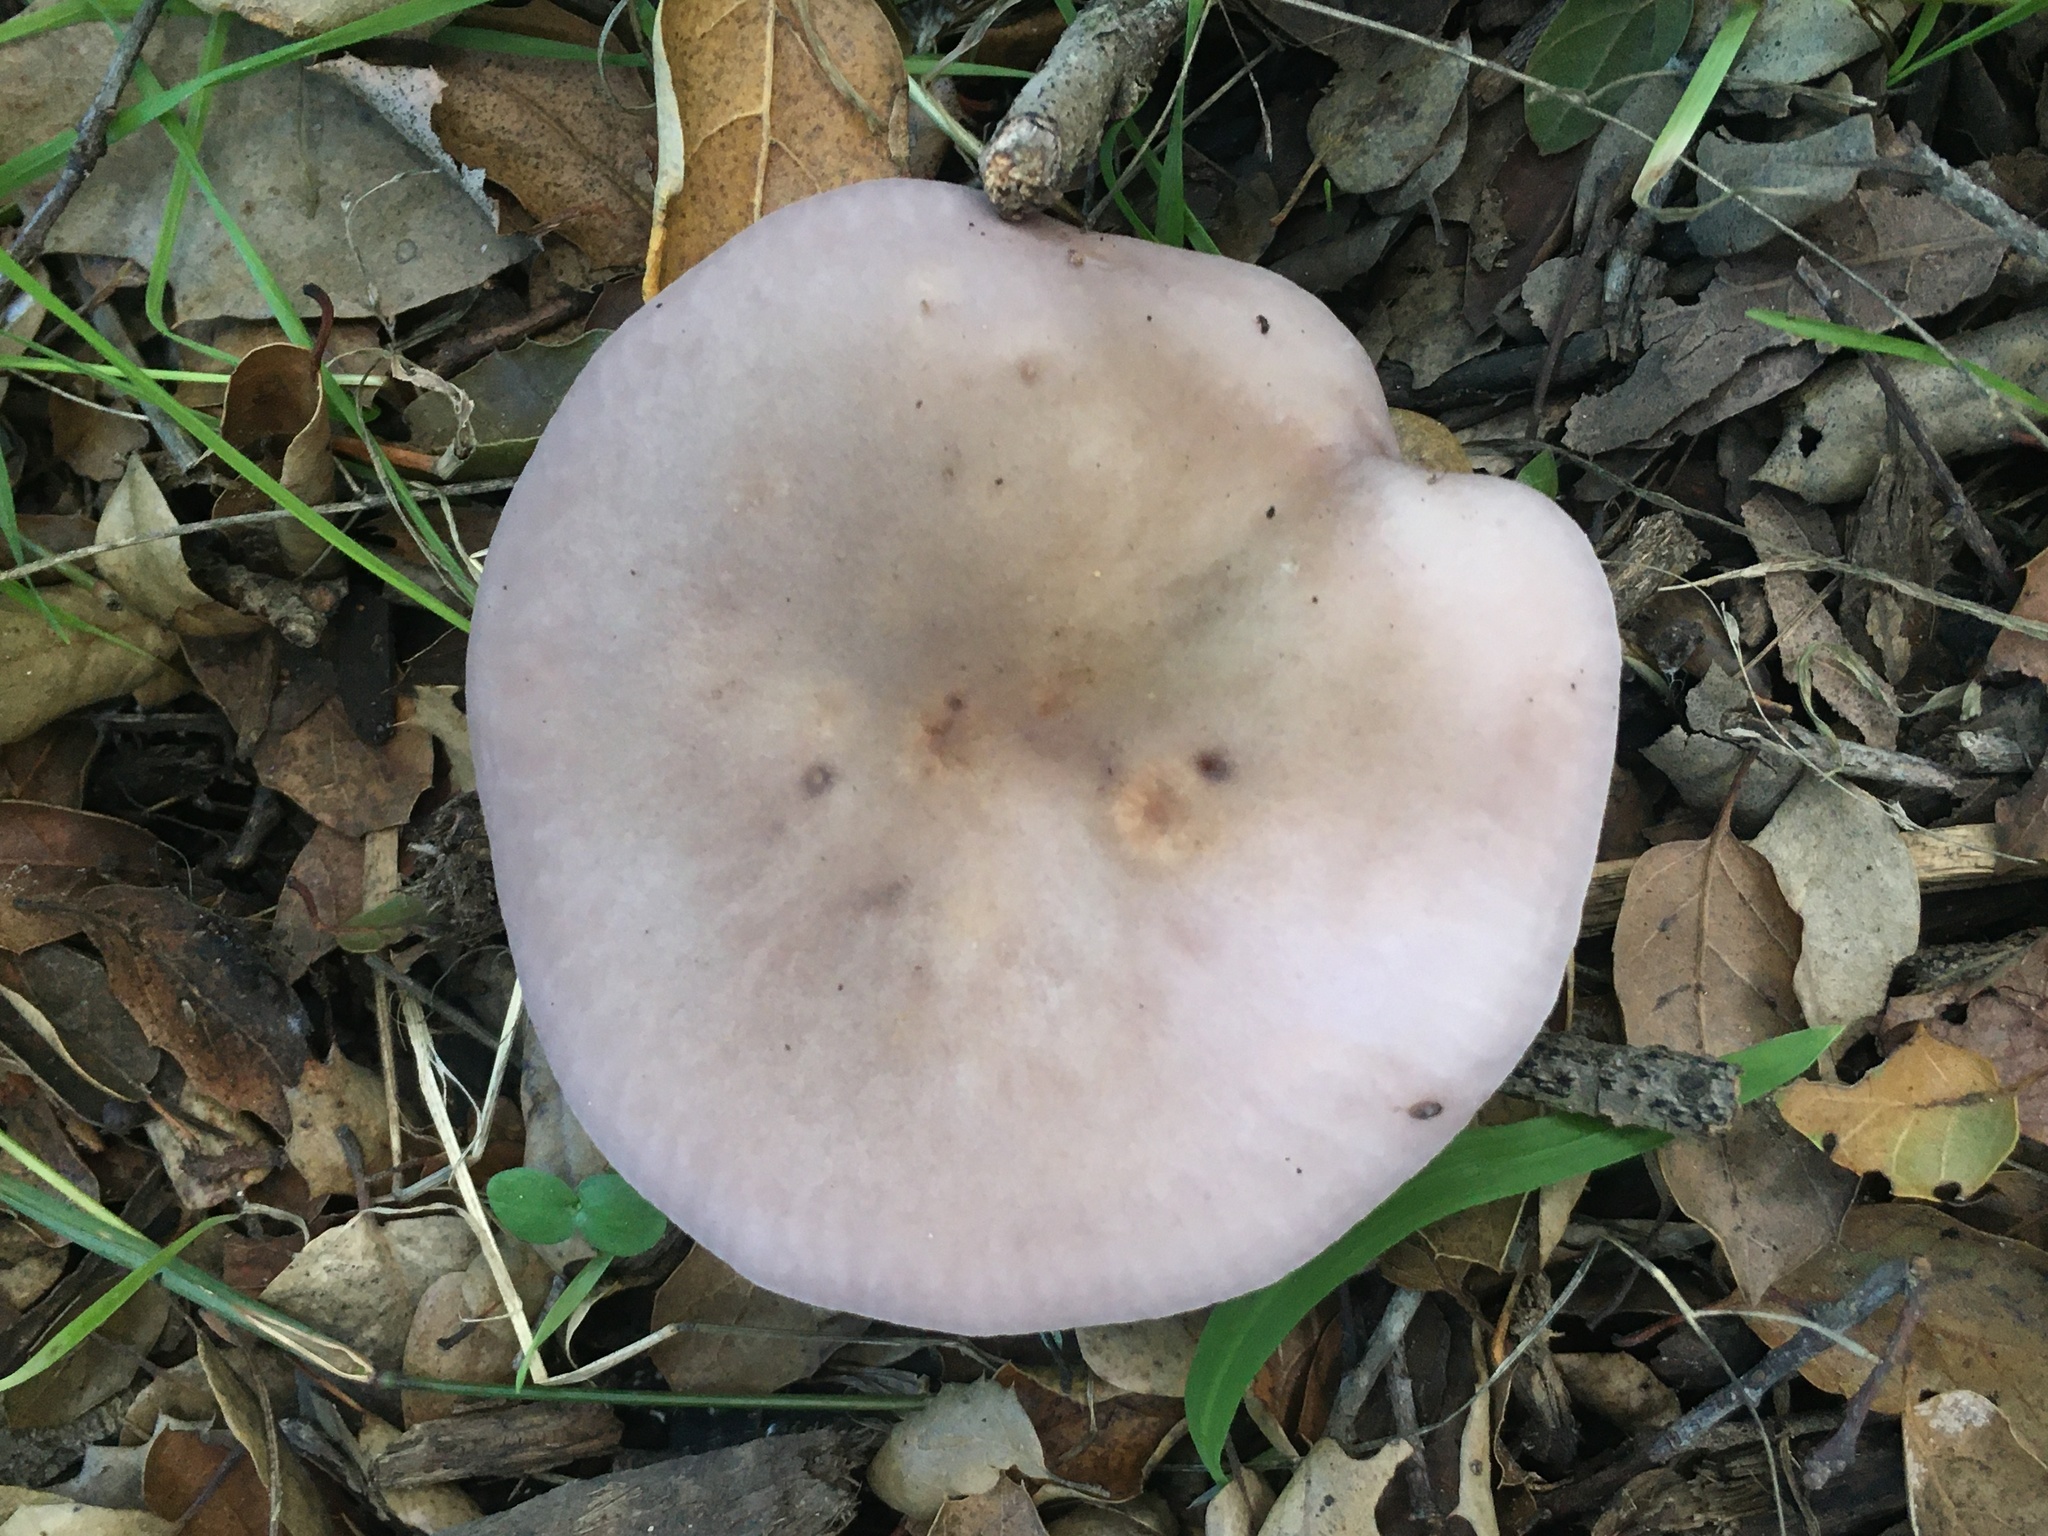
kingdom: Fungi
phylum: Basidiomycota
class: Agaricomycetes
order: Agaricales
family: Tricholomataceae
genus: Collybia
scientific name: Collybia
